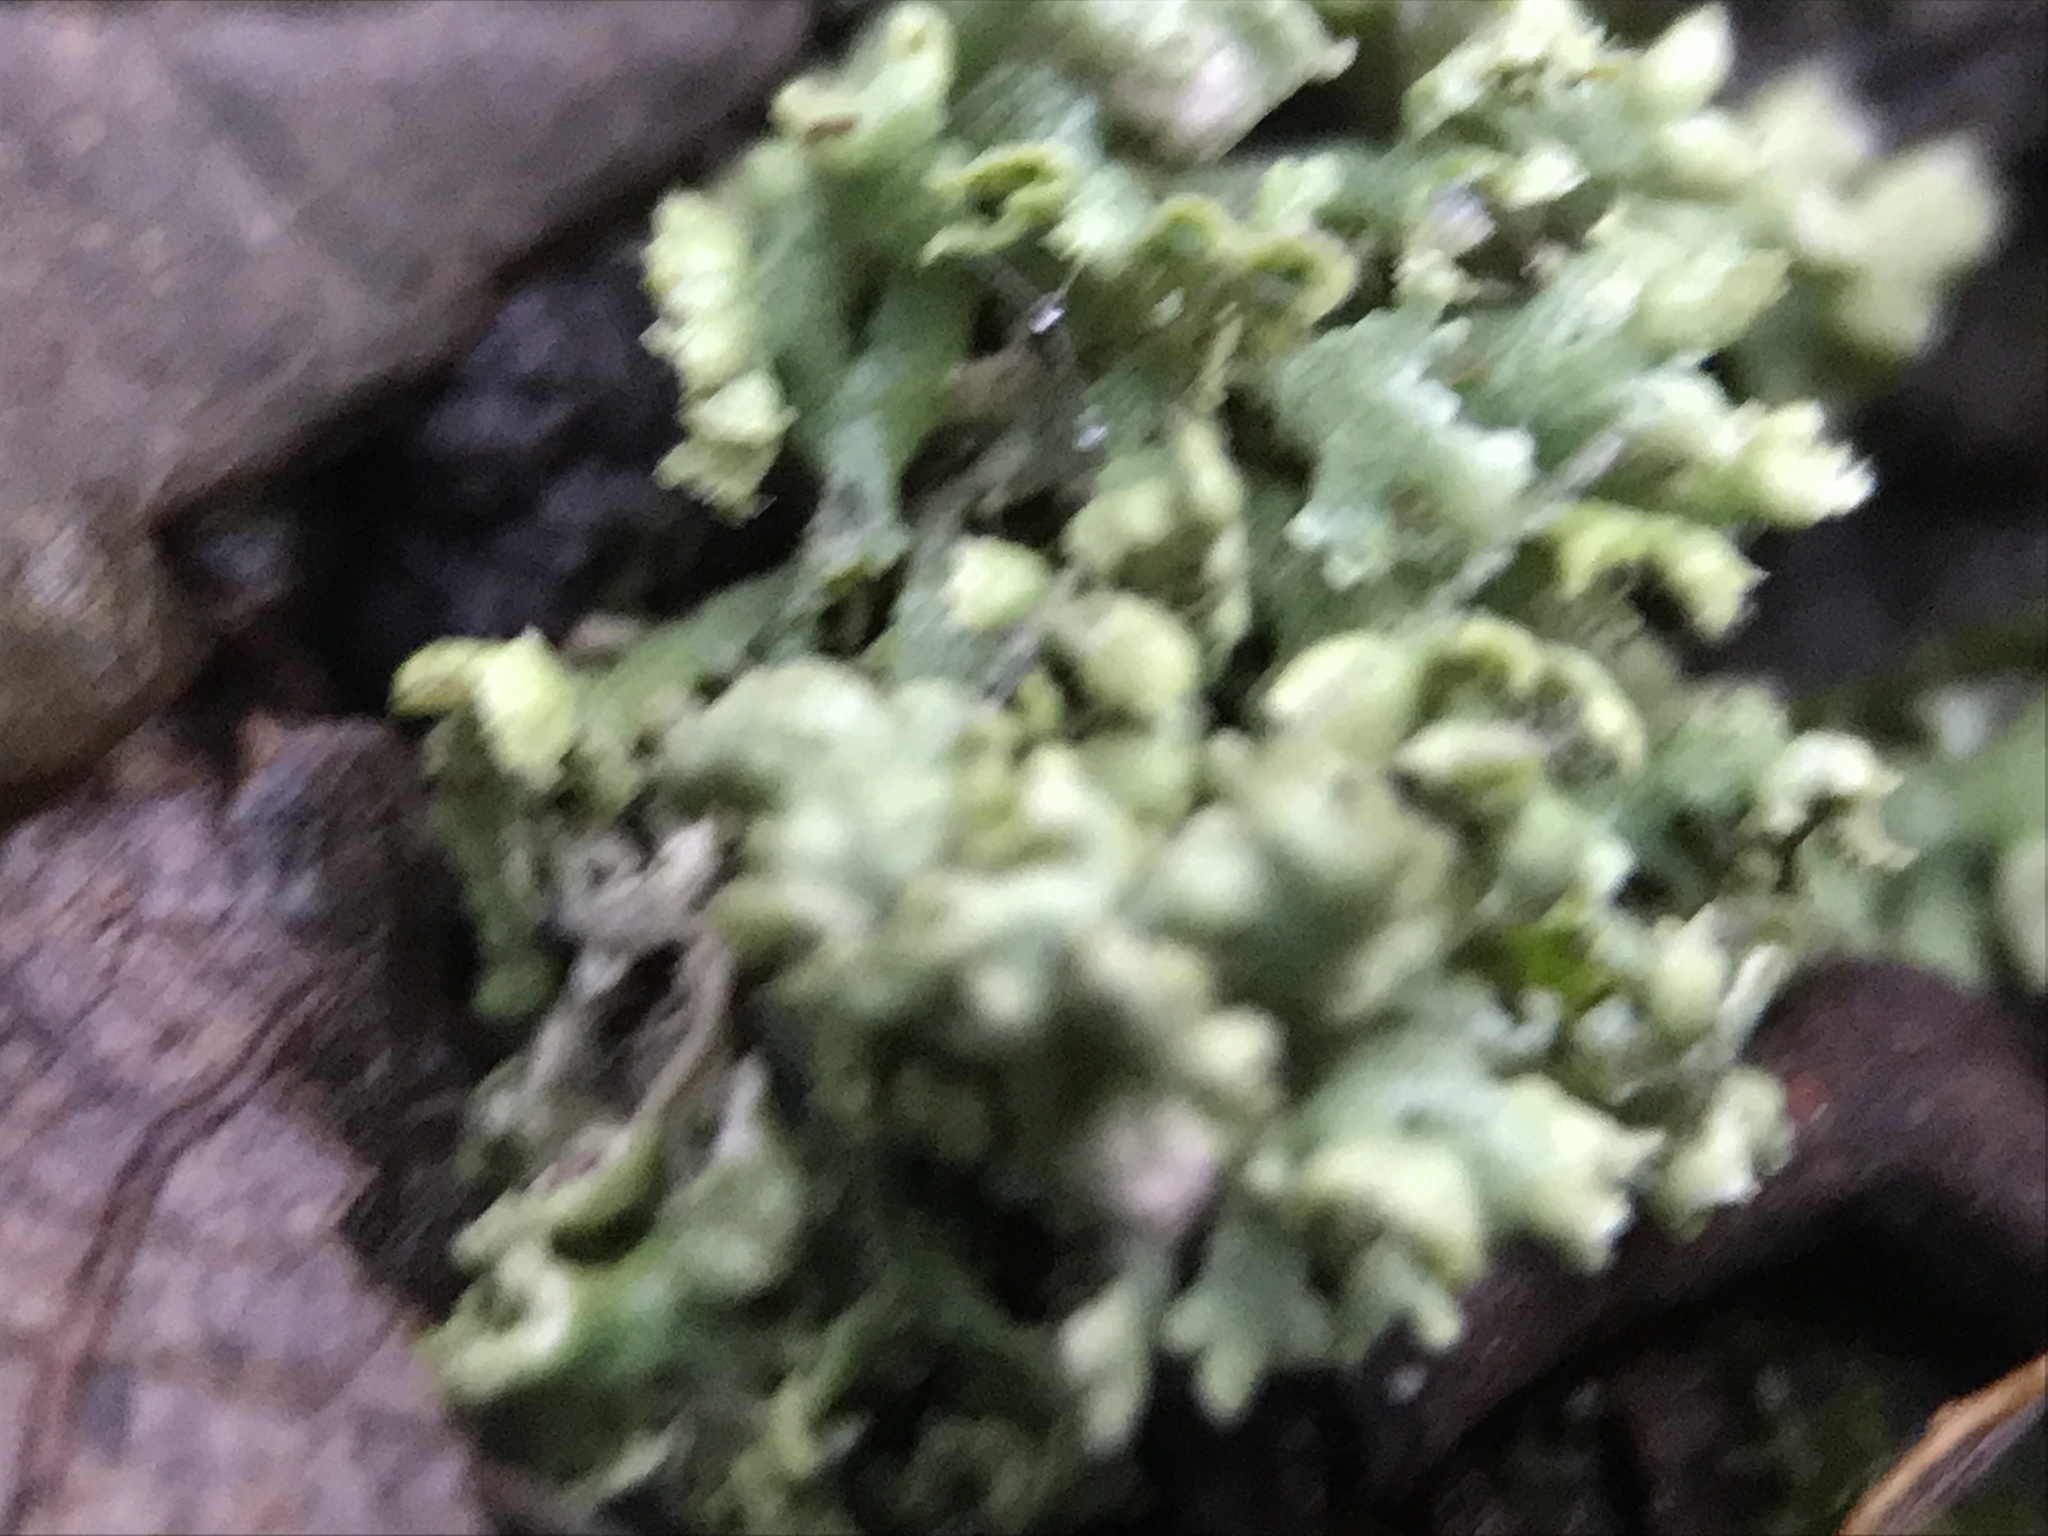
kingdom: Fungi
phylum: Ascomycota
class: Lecanoromycetes
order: Caliciales
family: Physciaceae
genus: Physcia
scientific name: Physcia adscendens
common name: Hooded rosette lichen
